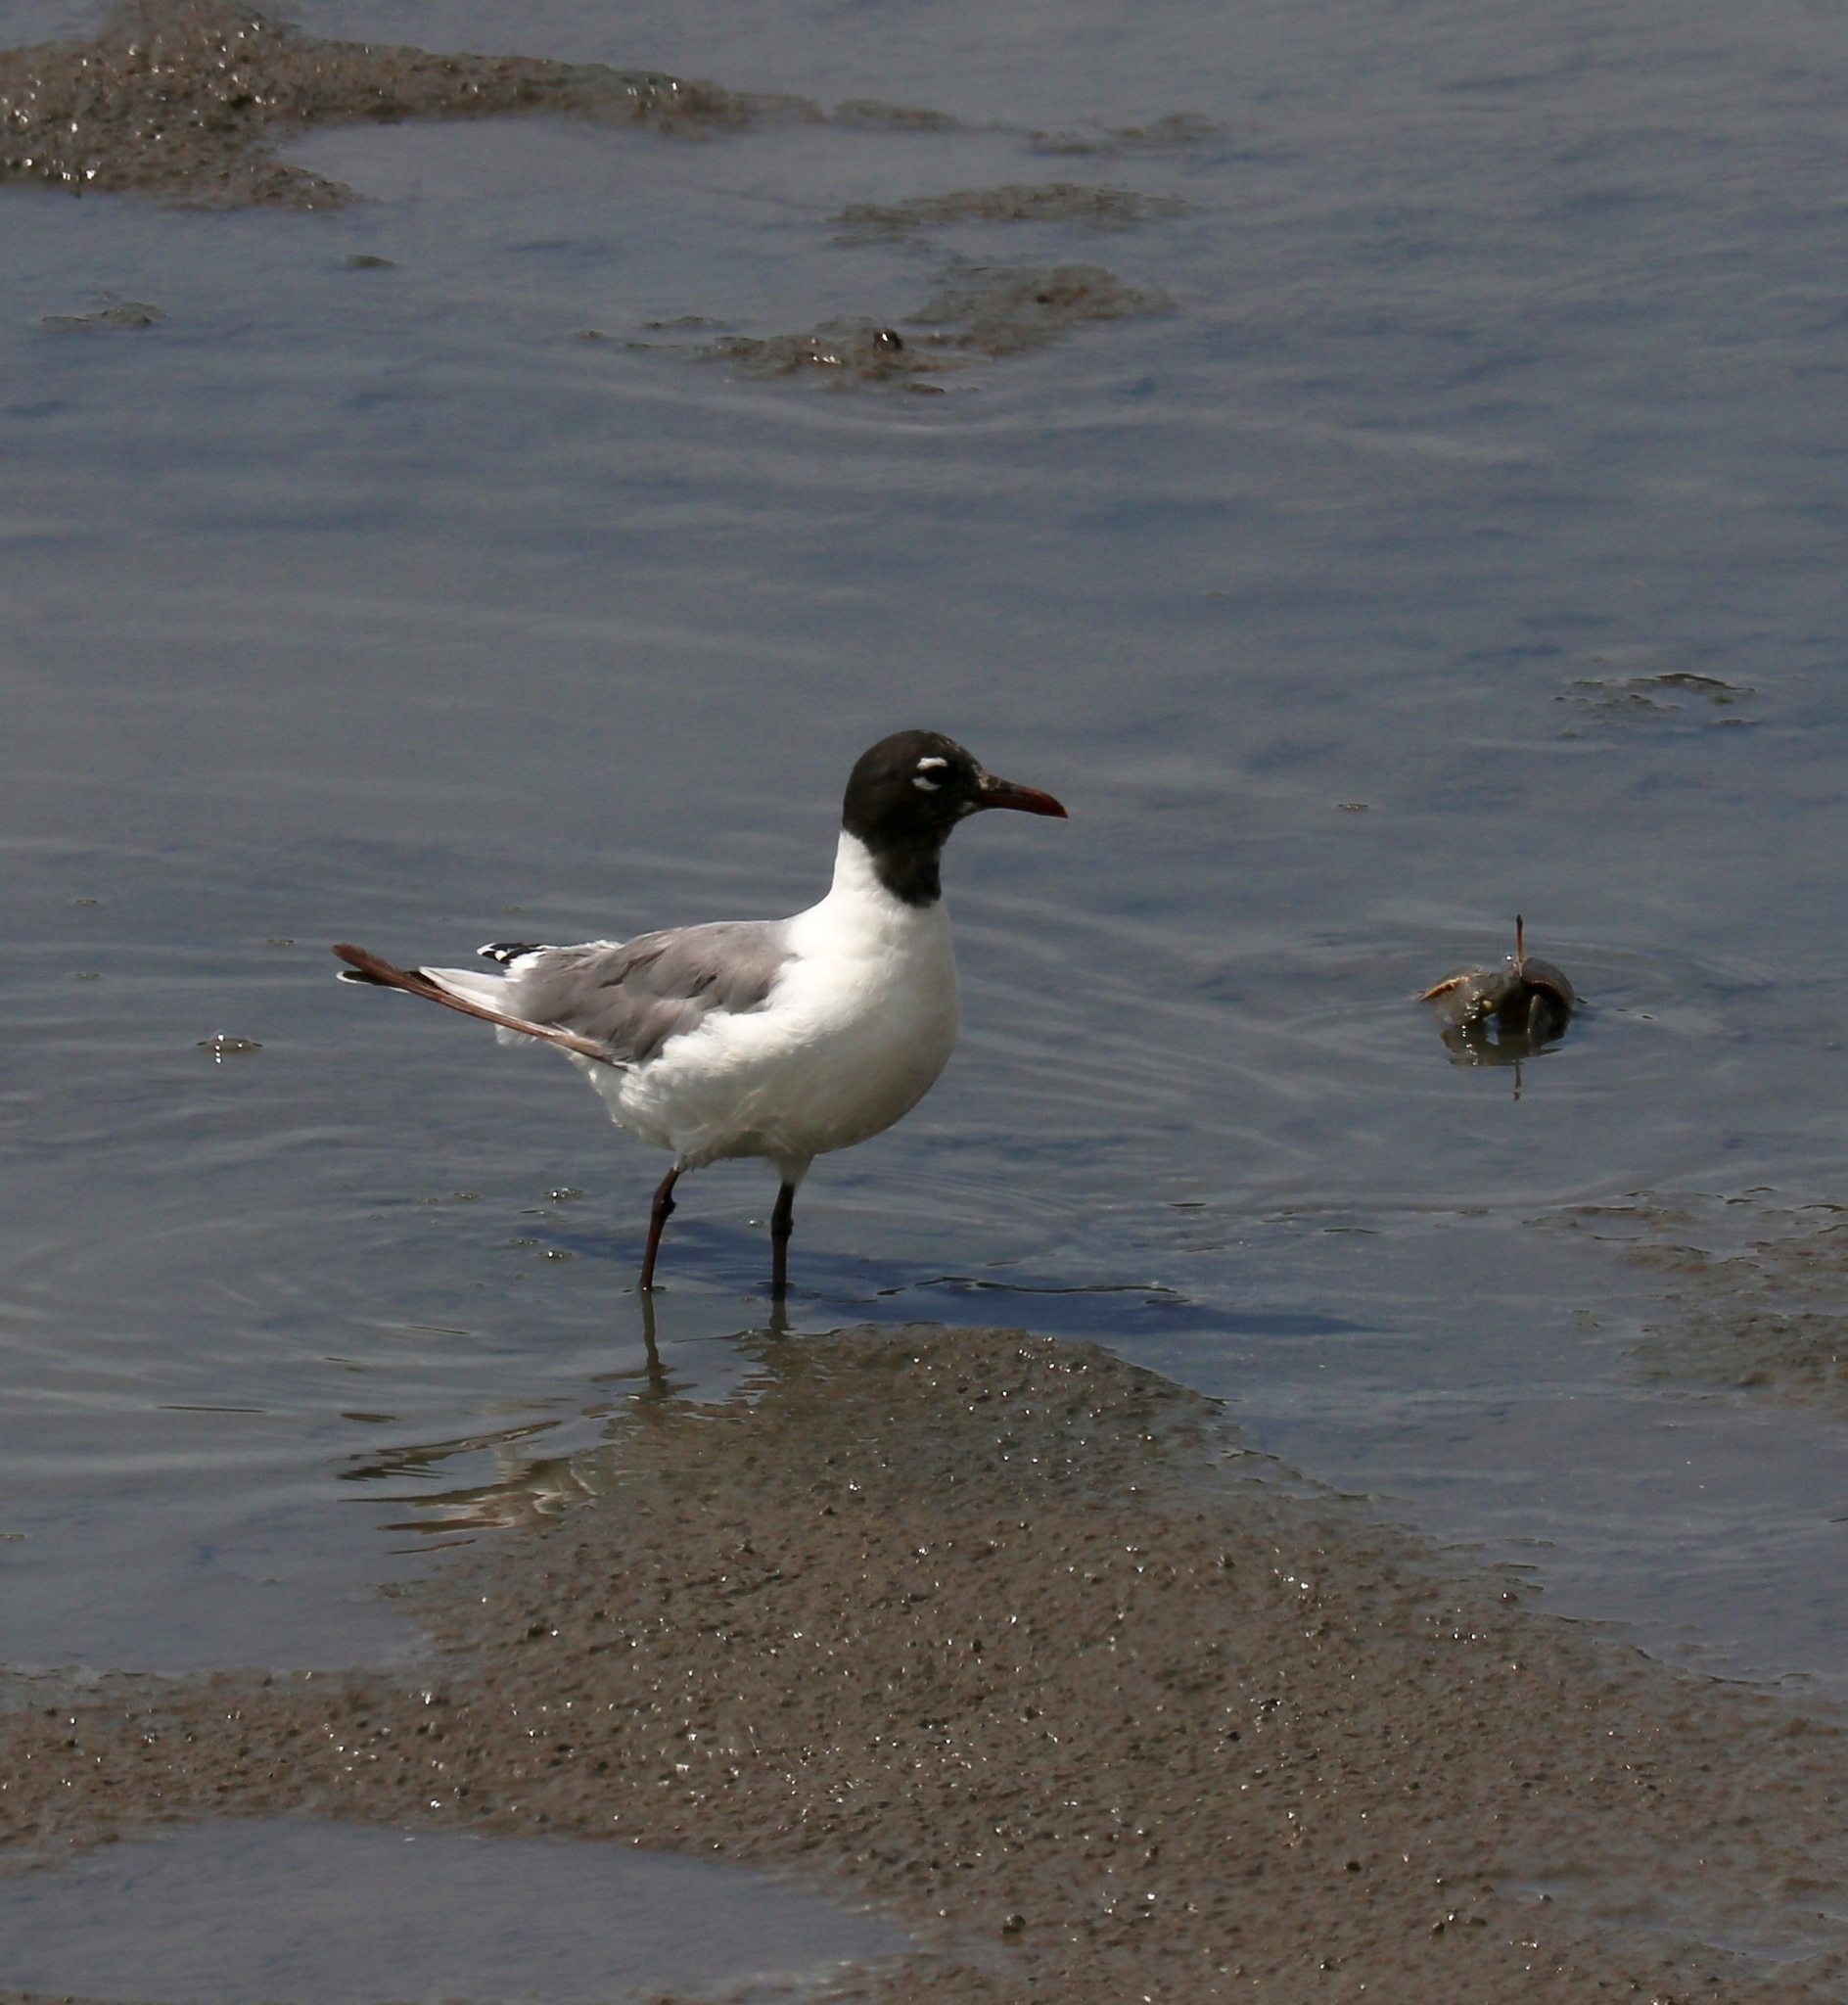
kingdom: Animalia
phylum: Chordata
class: Aves
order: Charadriiformes
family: Laridae
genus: Leucophaeus
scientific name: Leucophaeus atricilla
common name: Laughing gull
